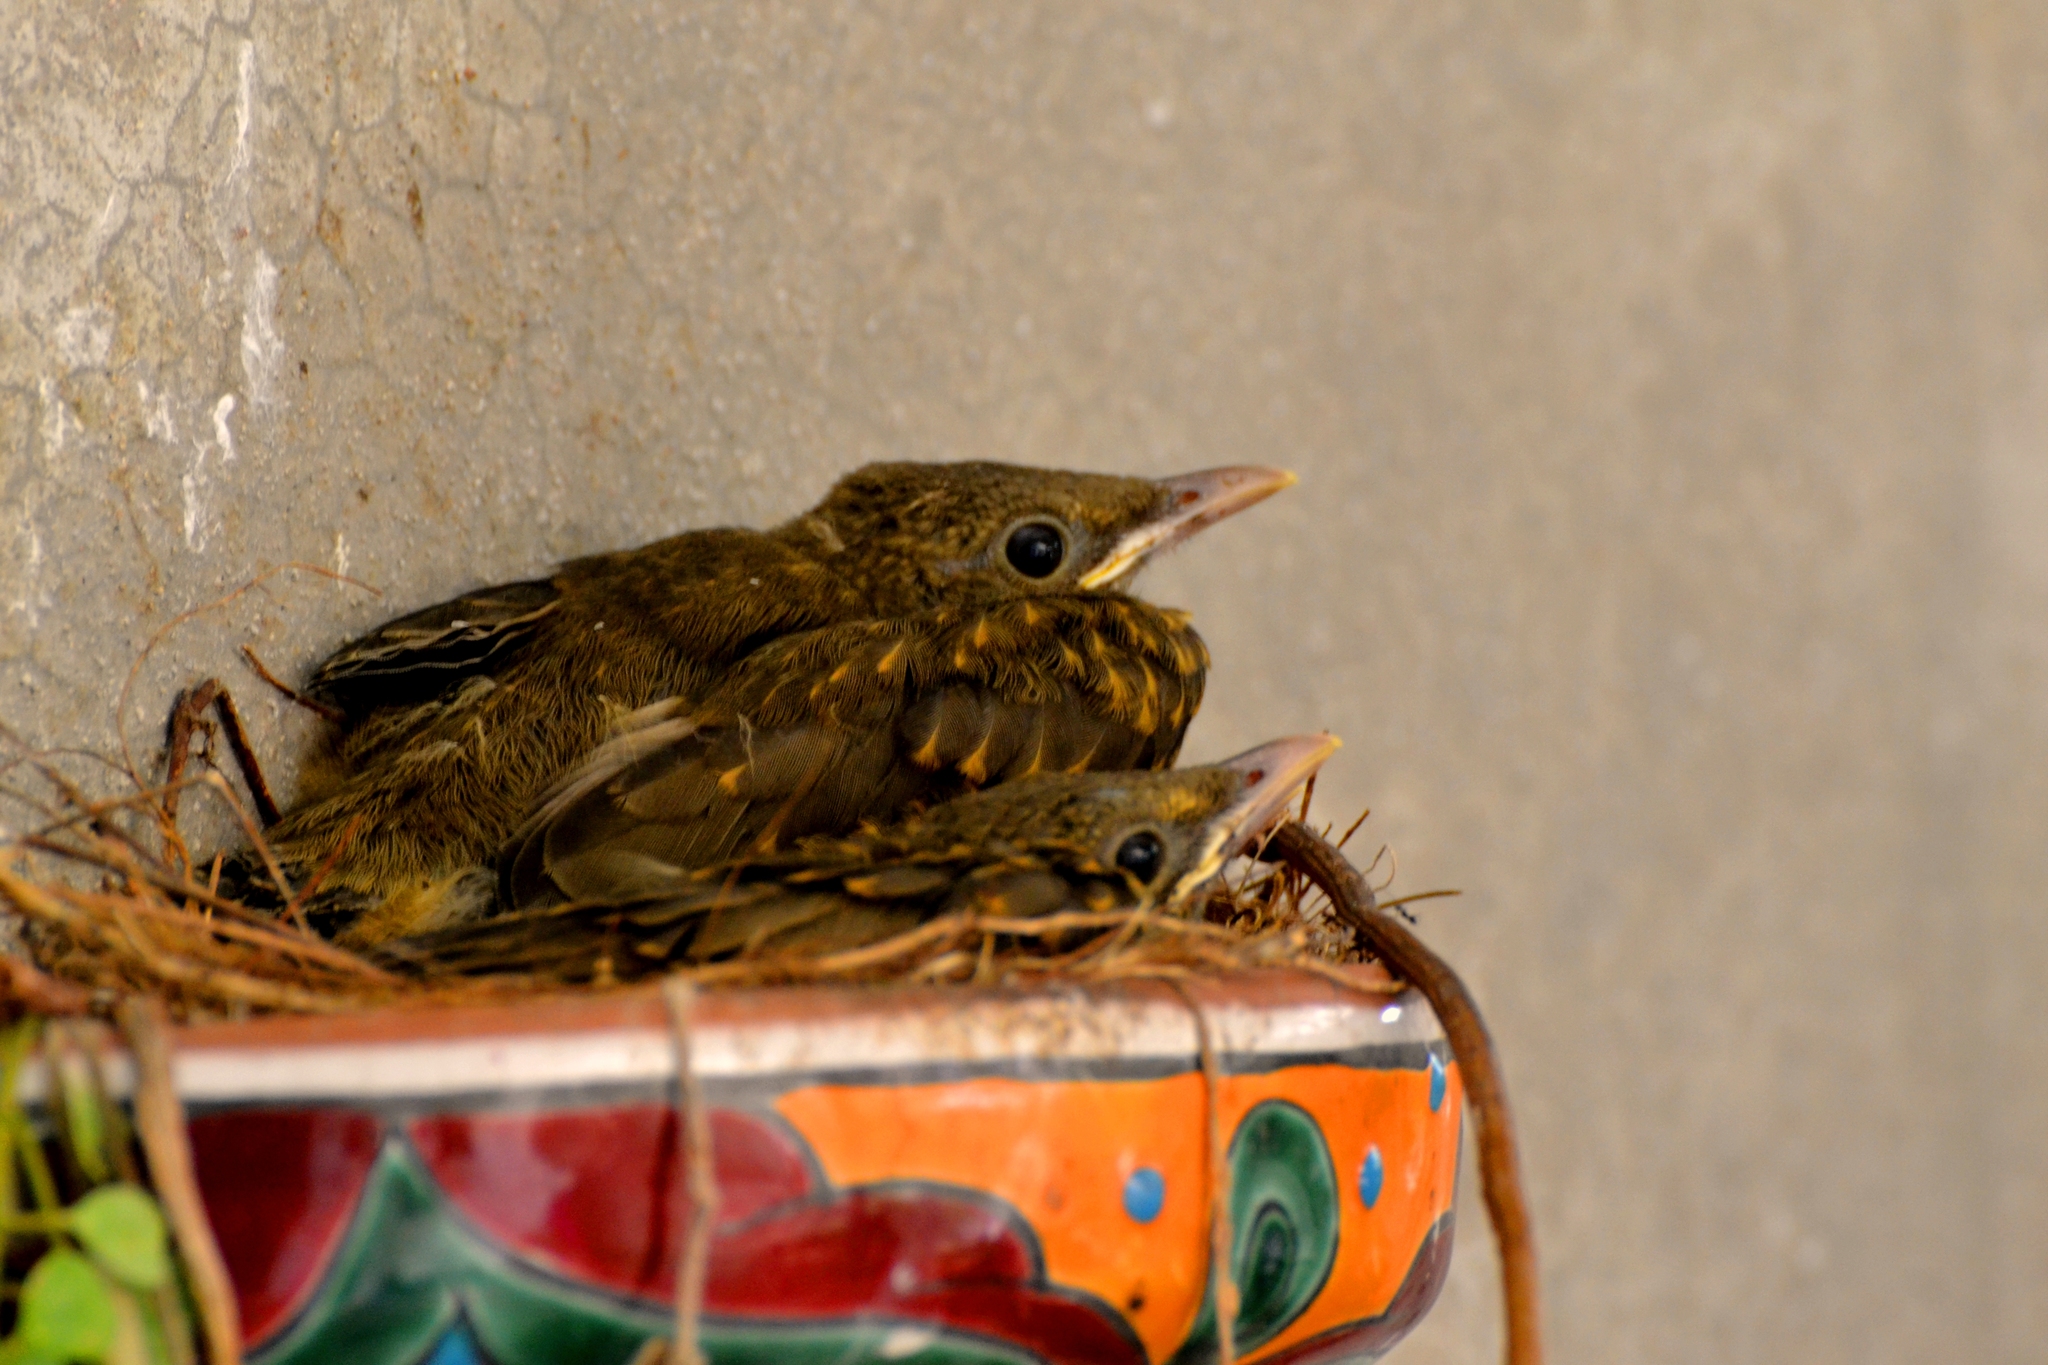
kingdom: Animalia
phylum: Chordata
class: Aves
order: Passeriformes
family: Turdidae
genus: Turdus
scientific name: Turdus grayi
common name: Clay-colored thrush
